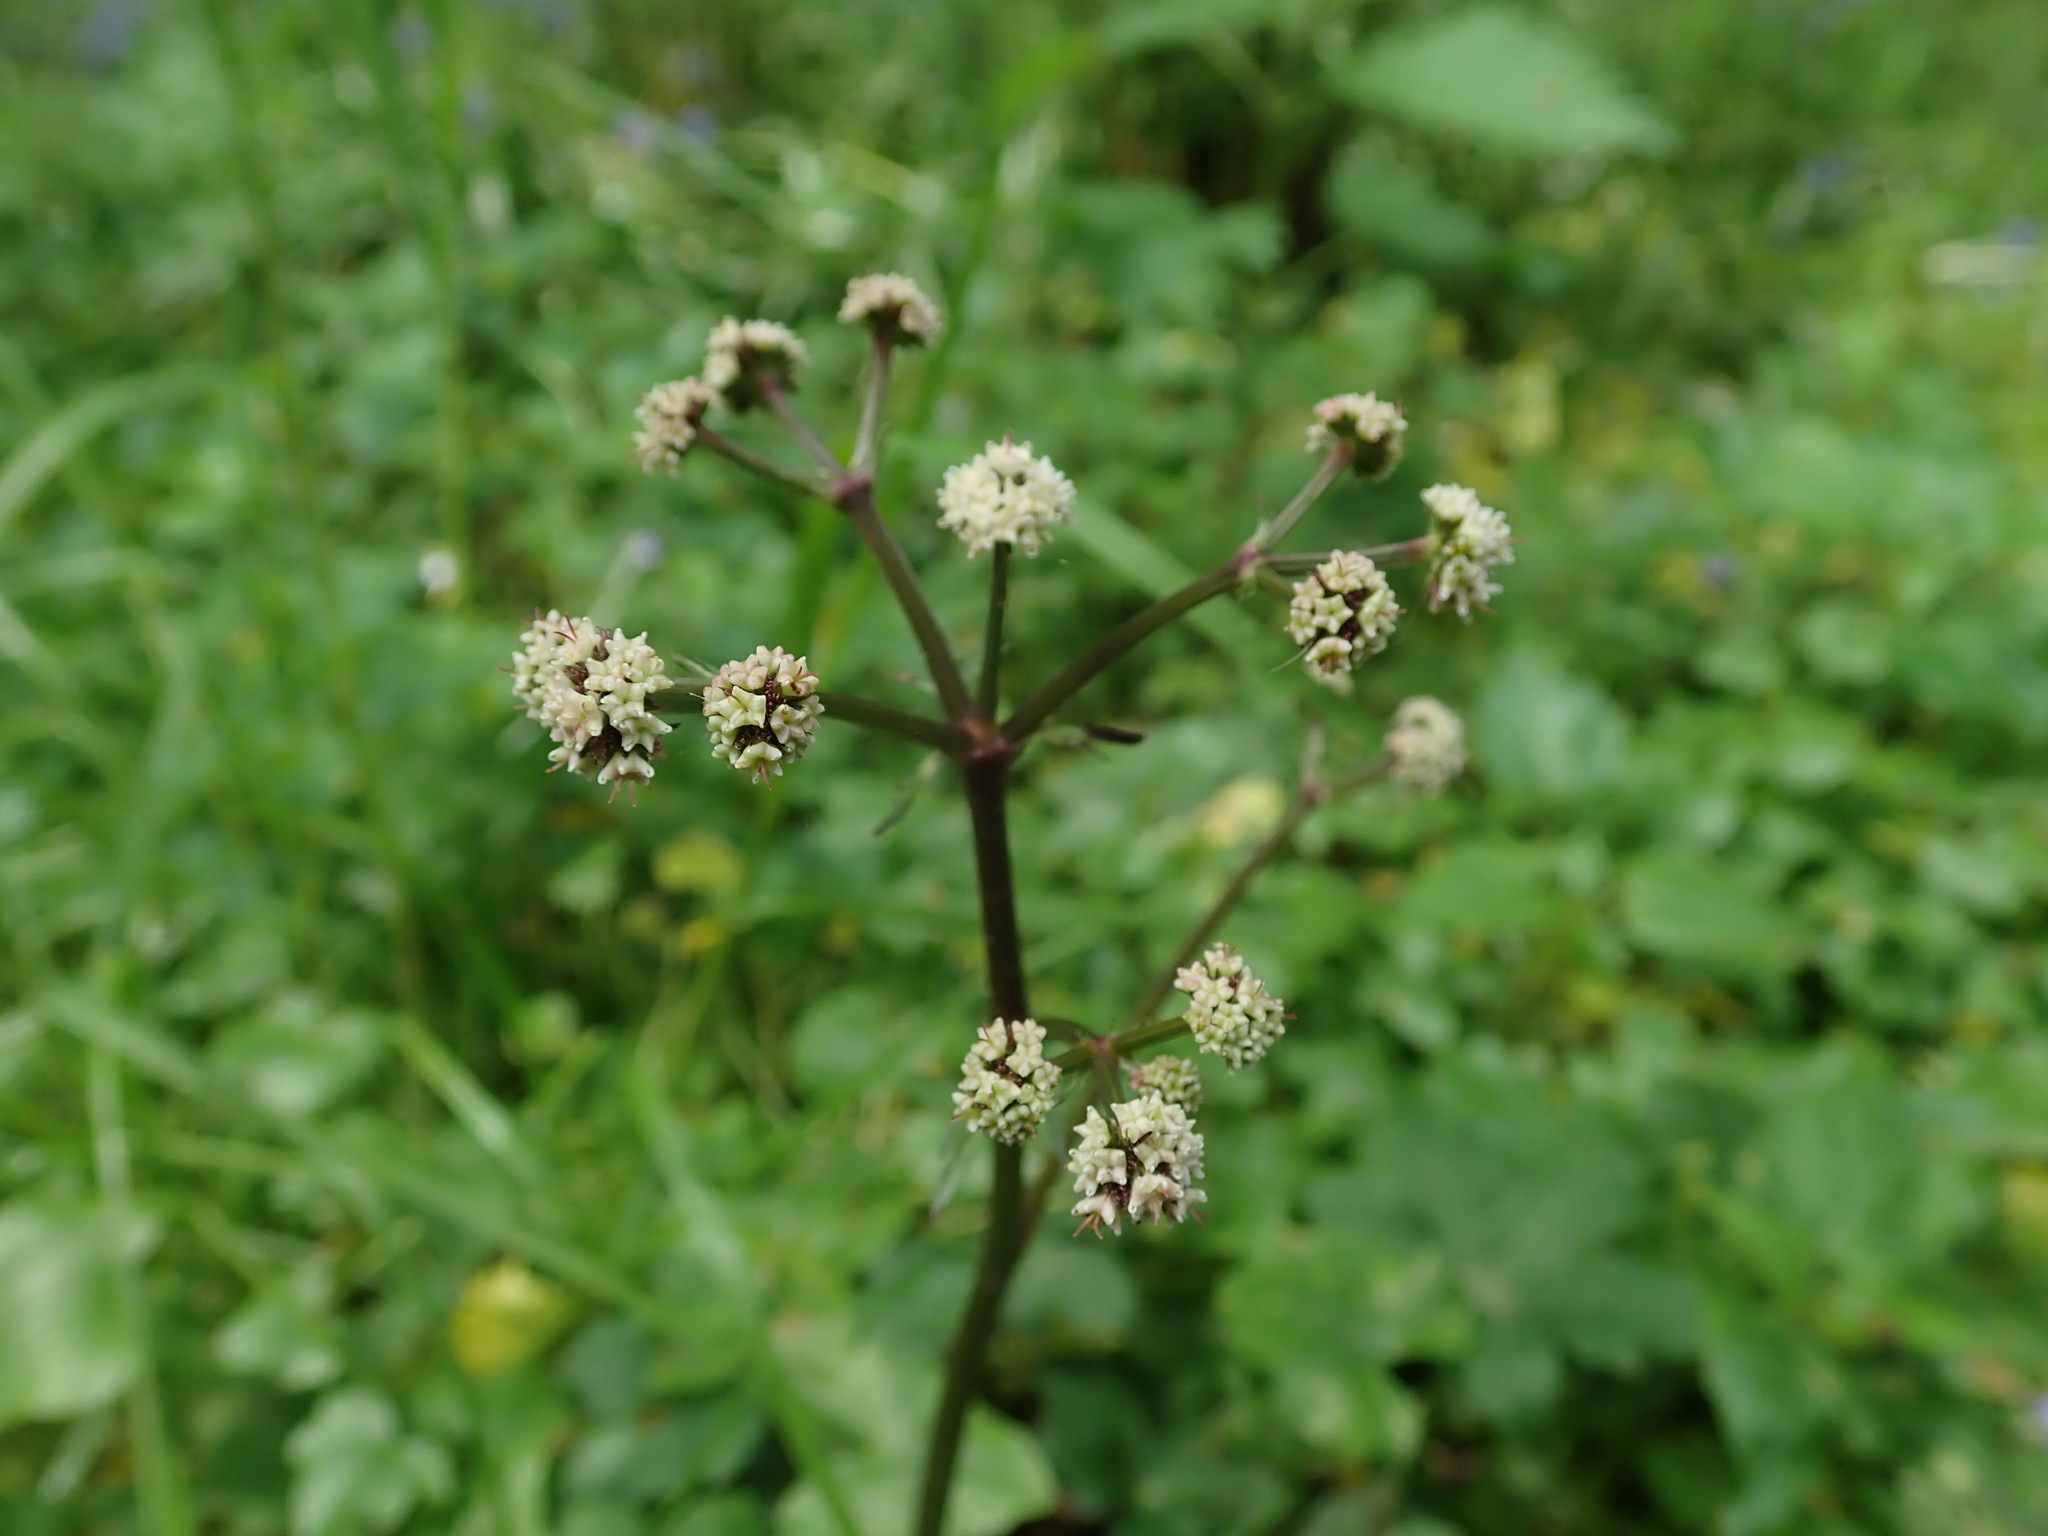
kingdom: Plantae
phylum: Tracheophyta
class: Magnoliopsida
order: Apiales
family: Apiaceae
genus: Sanicula
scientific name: Sanicula europaea
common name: Sanicle
